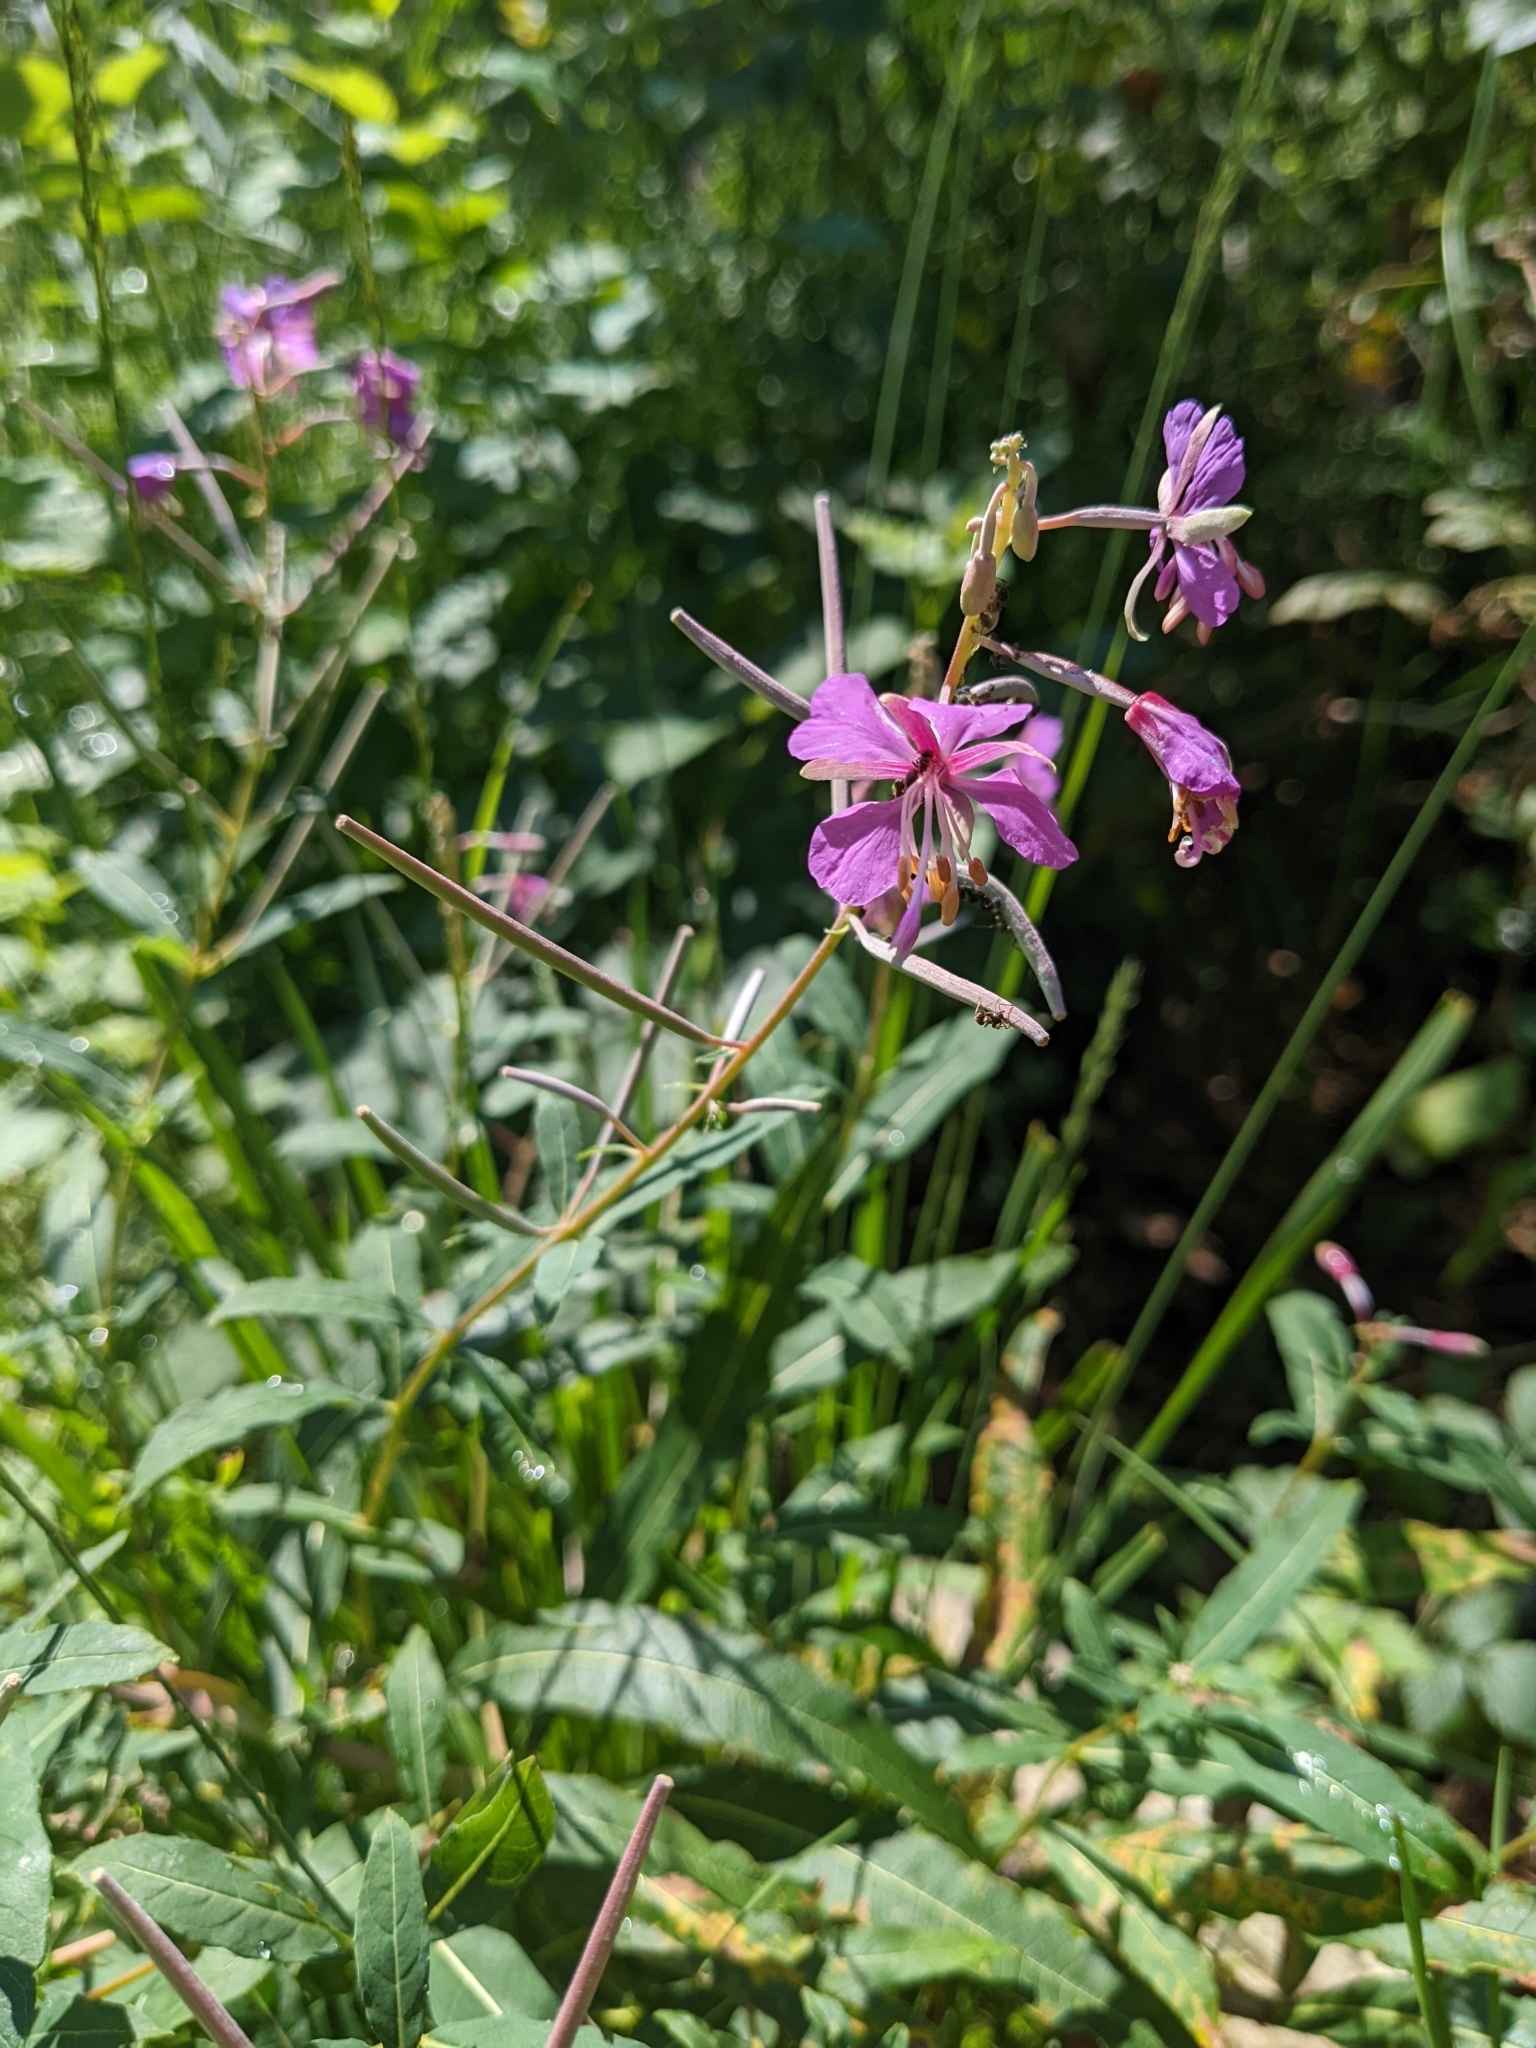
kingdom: Plantae
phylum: Tracheophyta
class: Magnoliopsida
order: Myrtales
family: Onagraceae
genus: Chamaenerion
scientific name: Chamaenerion angustifolium
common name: Fireweed
